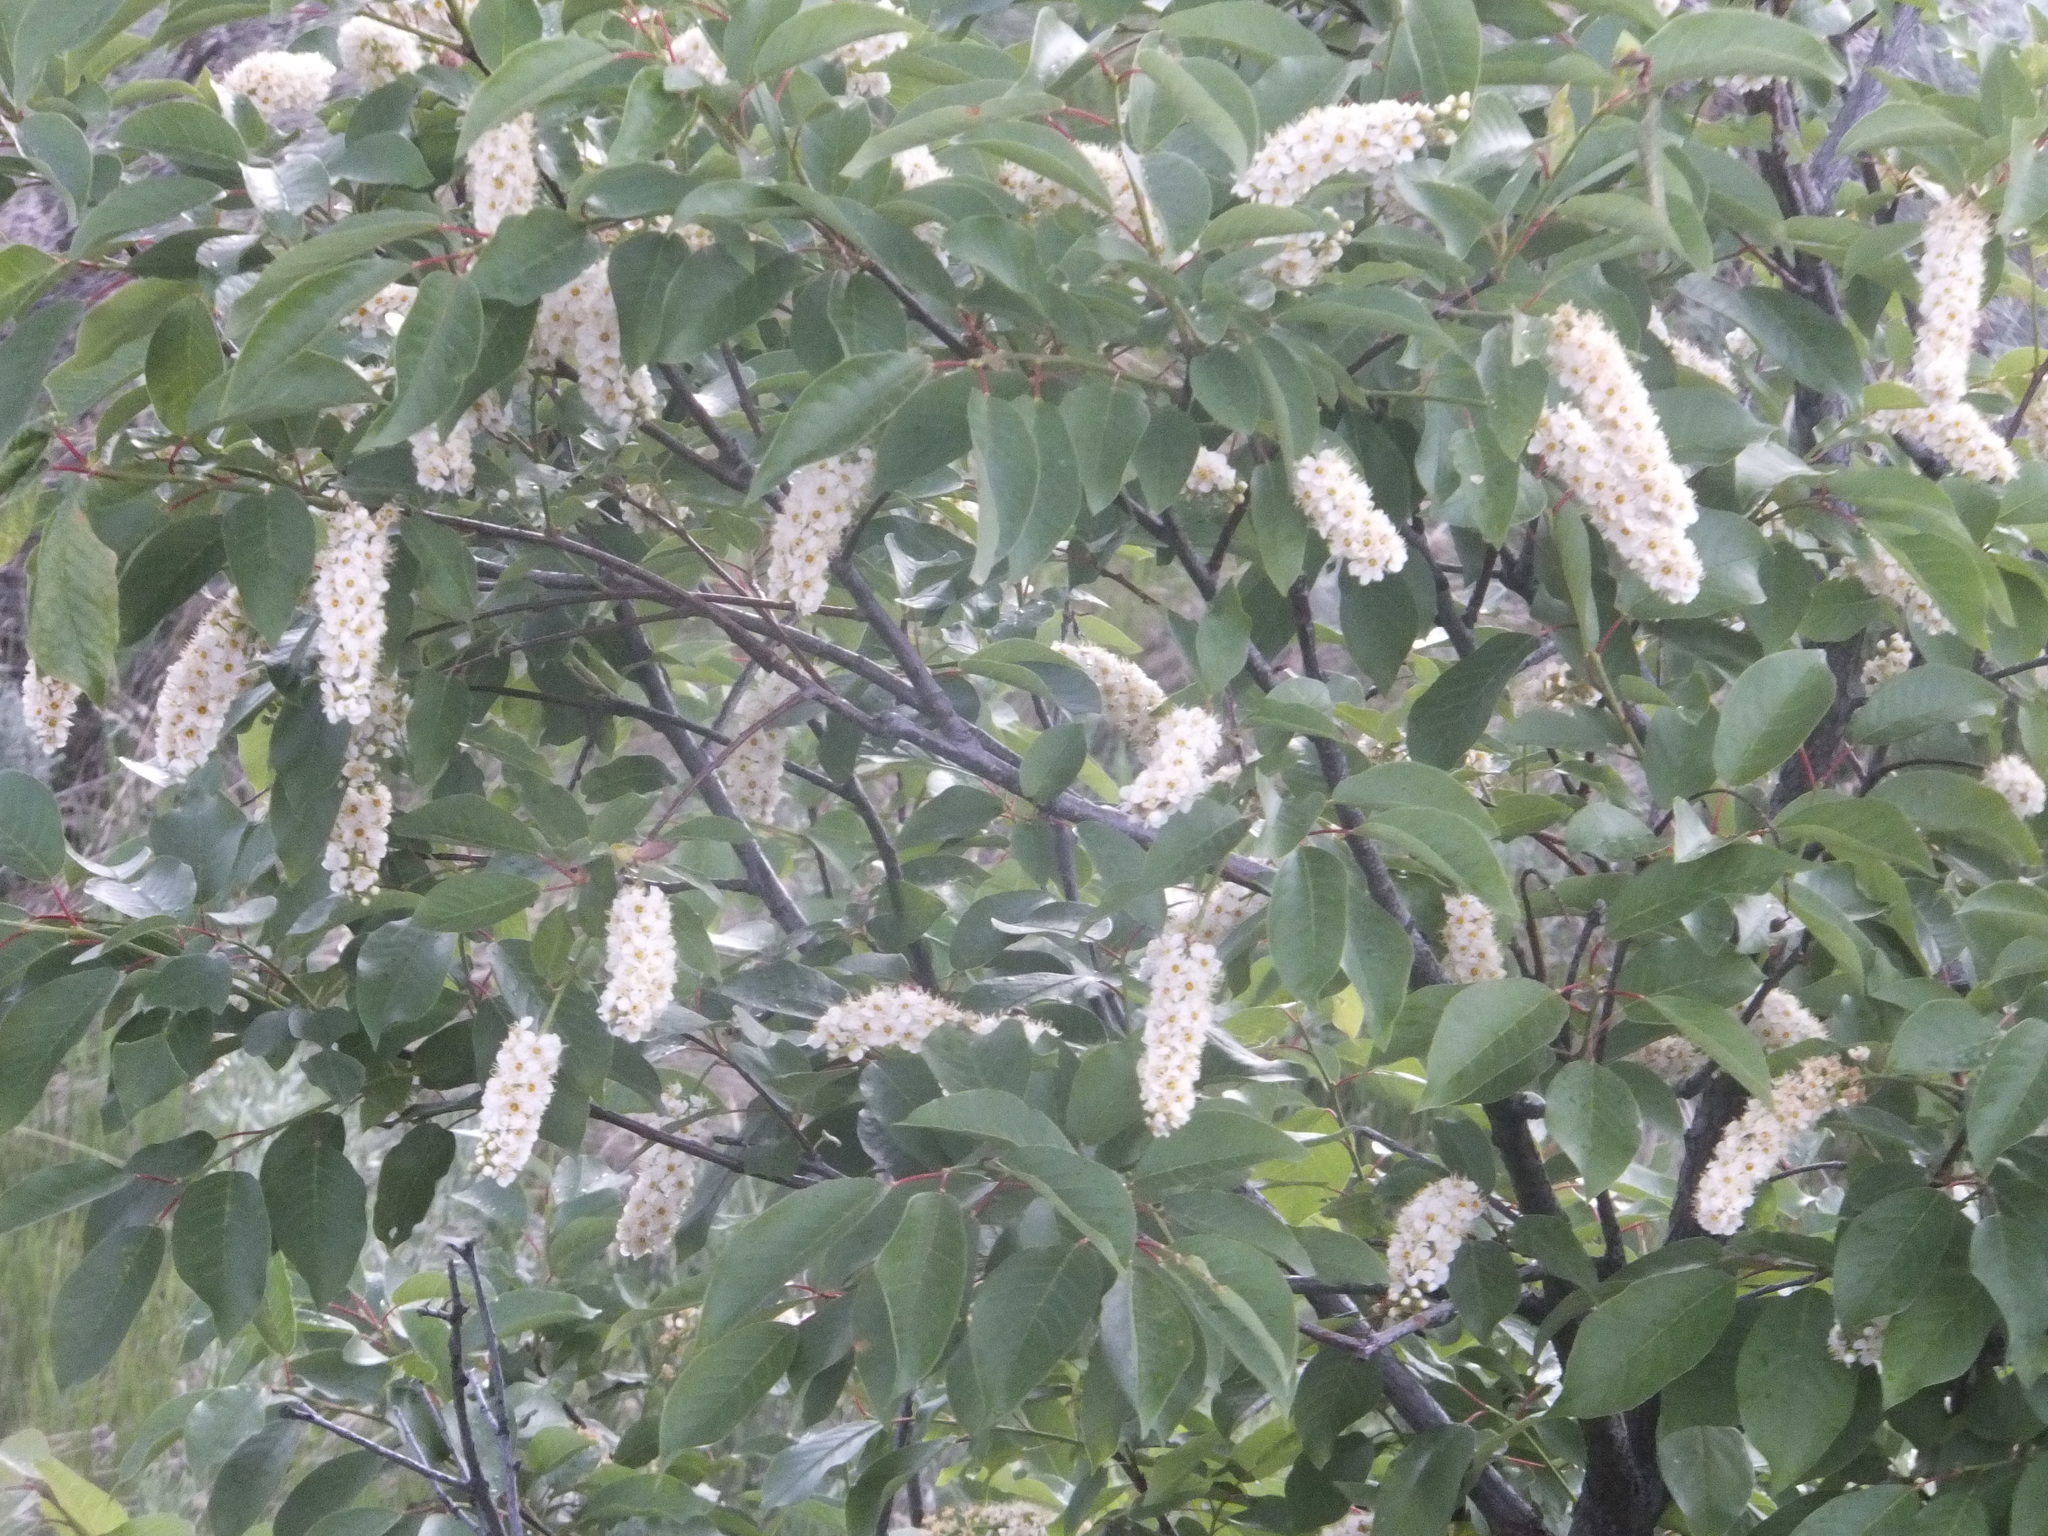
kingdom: Plantae
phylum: Tracheophyta
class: Magnoliopsida
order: Rosales
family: Rosaceae
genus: Prunus
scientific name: Prunus virginiana
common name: Chokecherry
